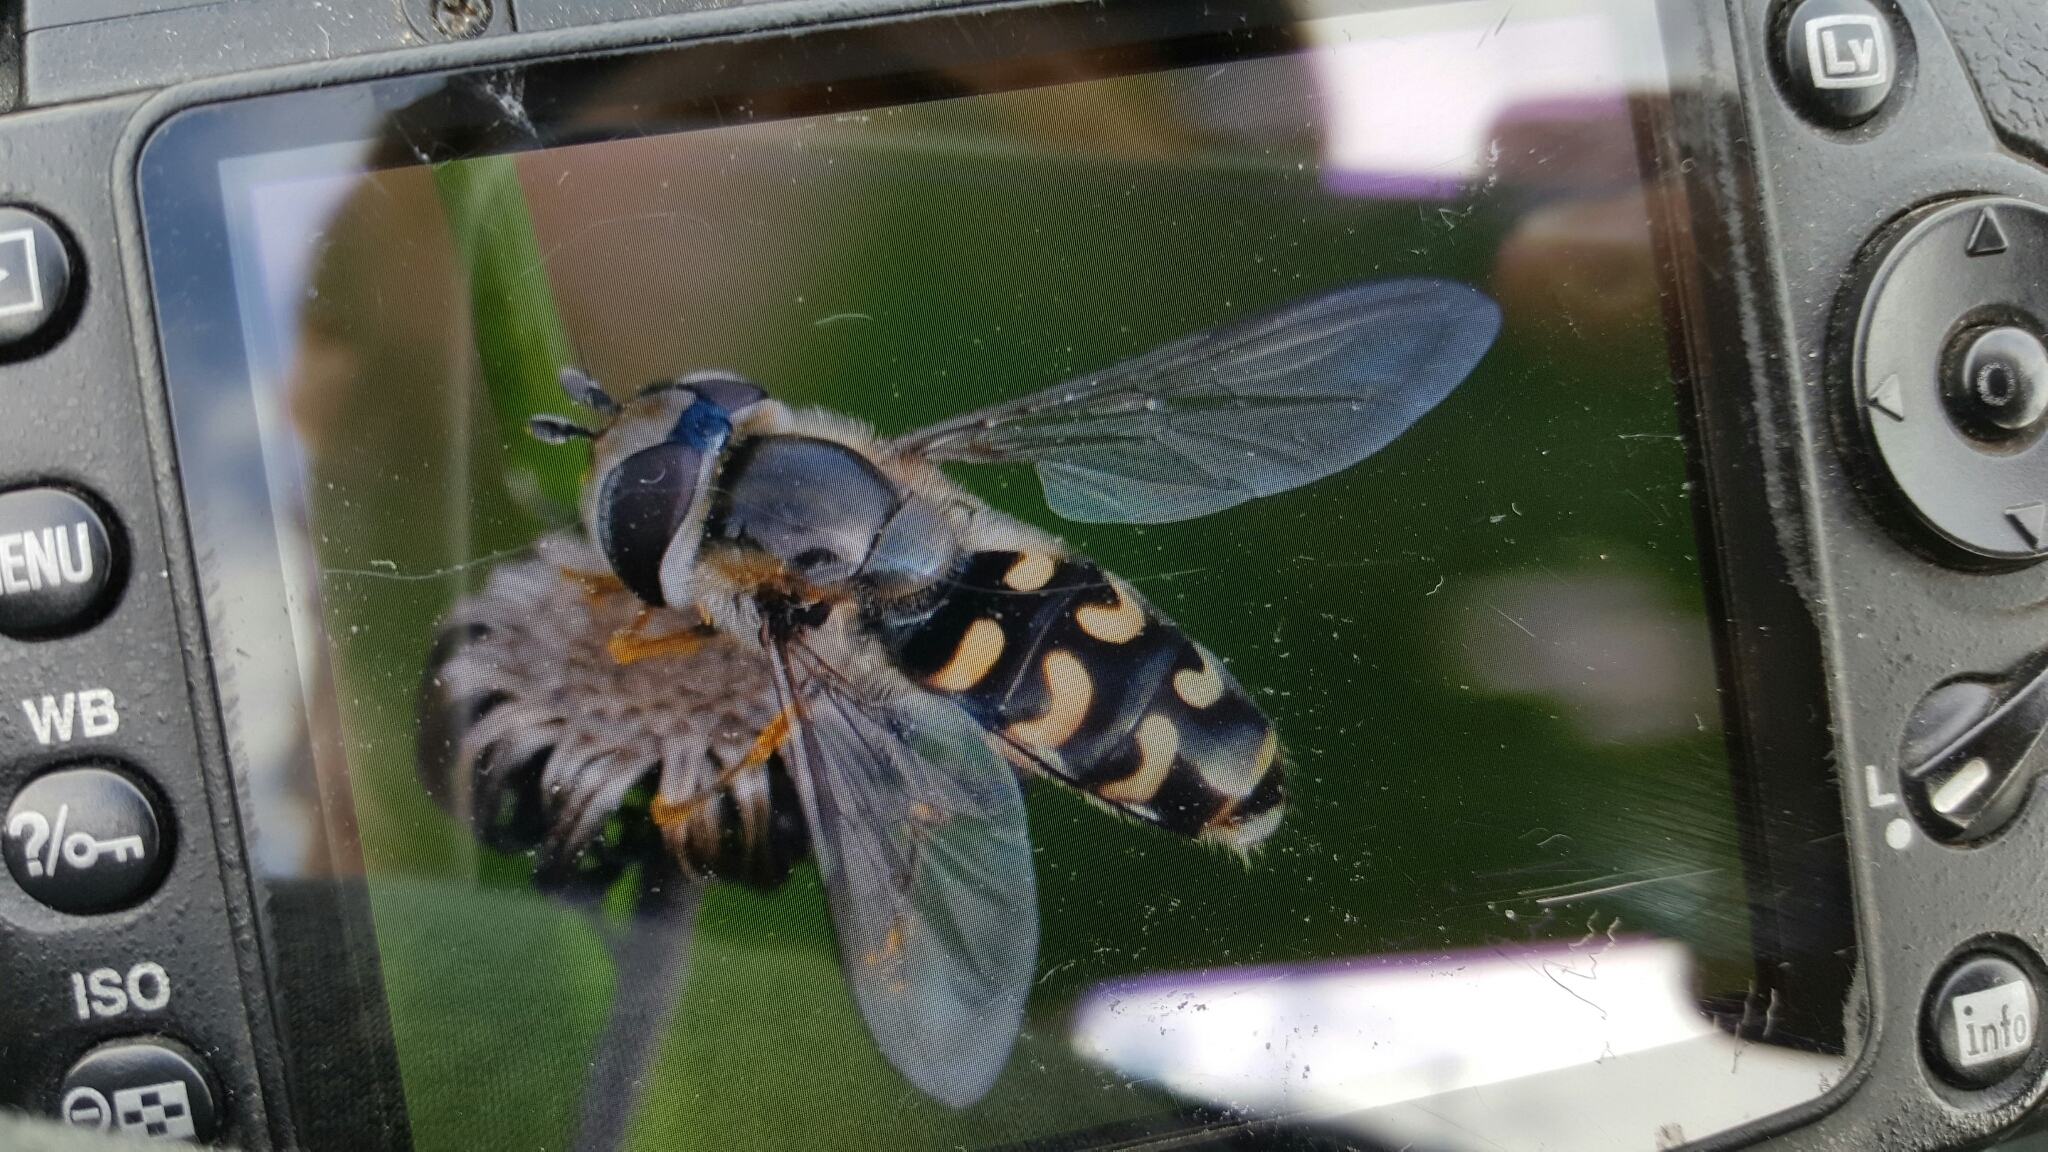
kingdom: Animalia
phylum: Arthropoda
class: Insecta
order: Diptera
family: Syrphidae
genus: Scaeva
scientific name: Scaeva selenitica
